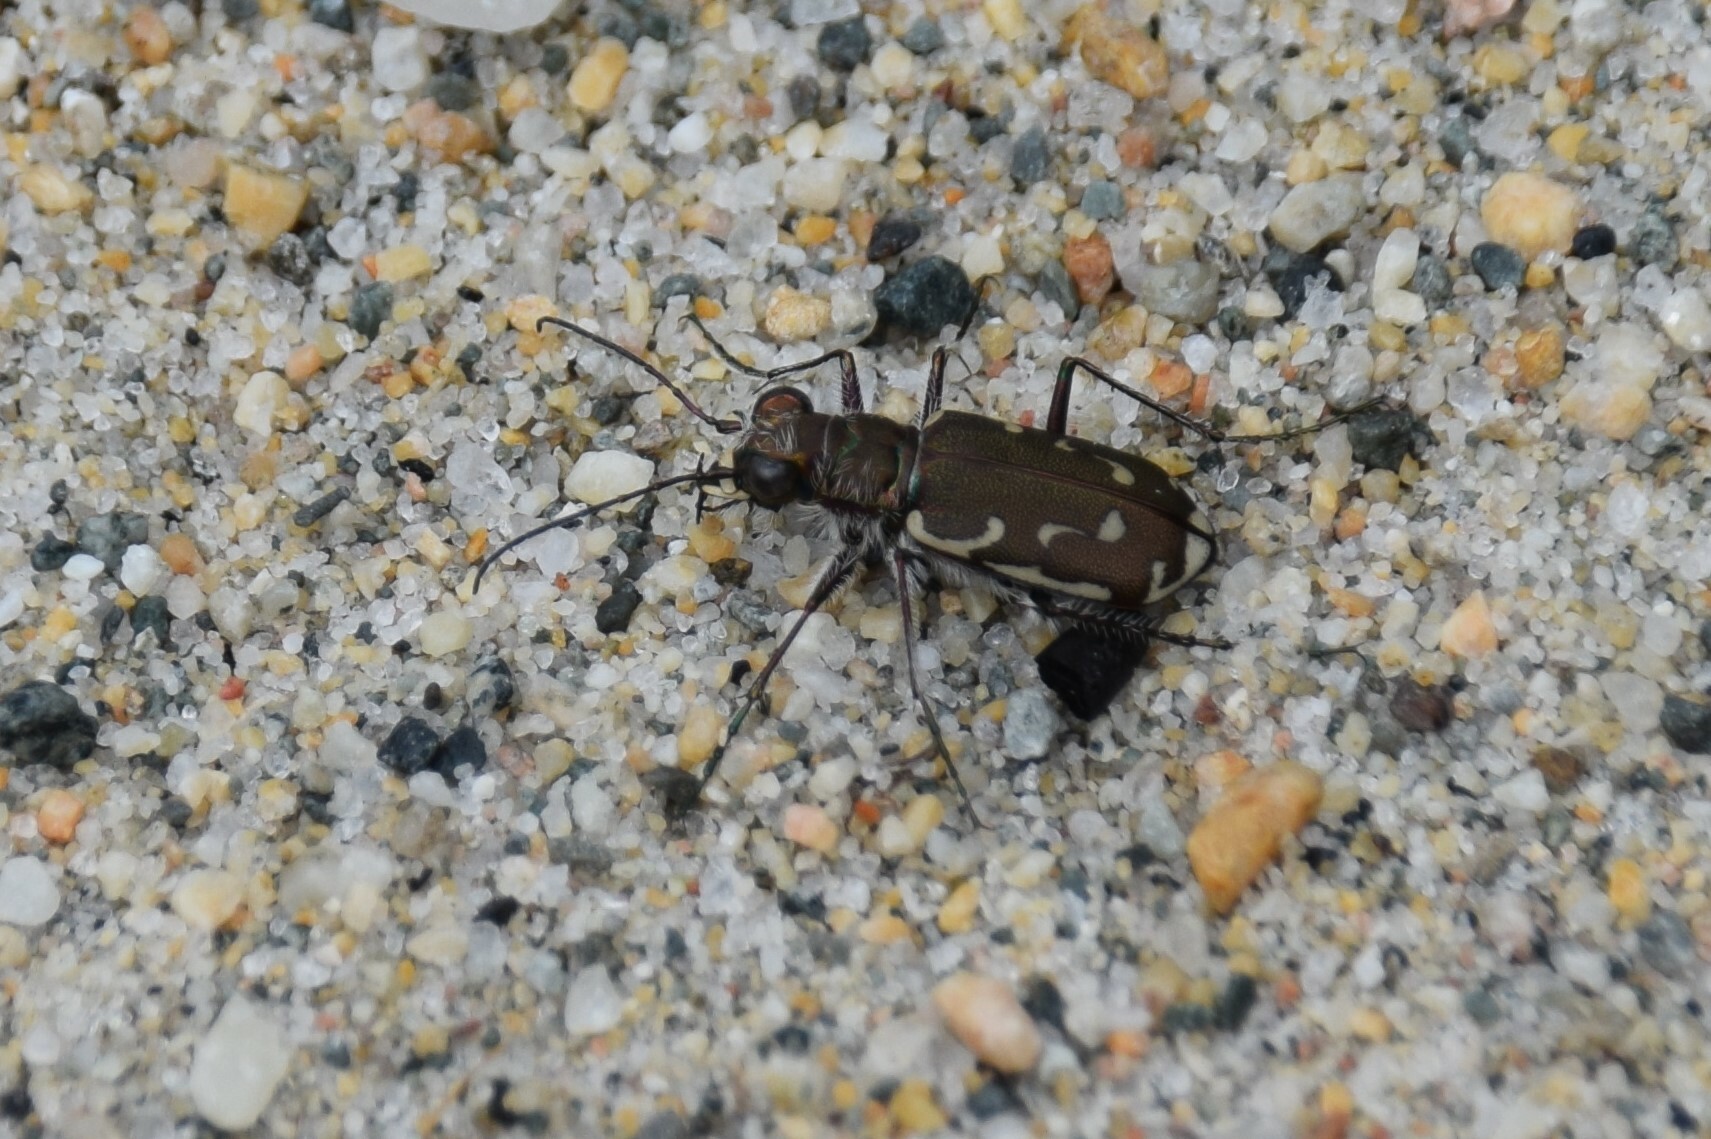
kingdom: Animalia
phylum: Arthropoda
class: Insecta
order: Coleoptera
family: Carabidae
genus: Cicindela
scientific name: Cicindela repanda
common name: Bronzed tiger beetle
